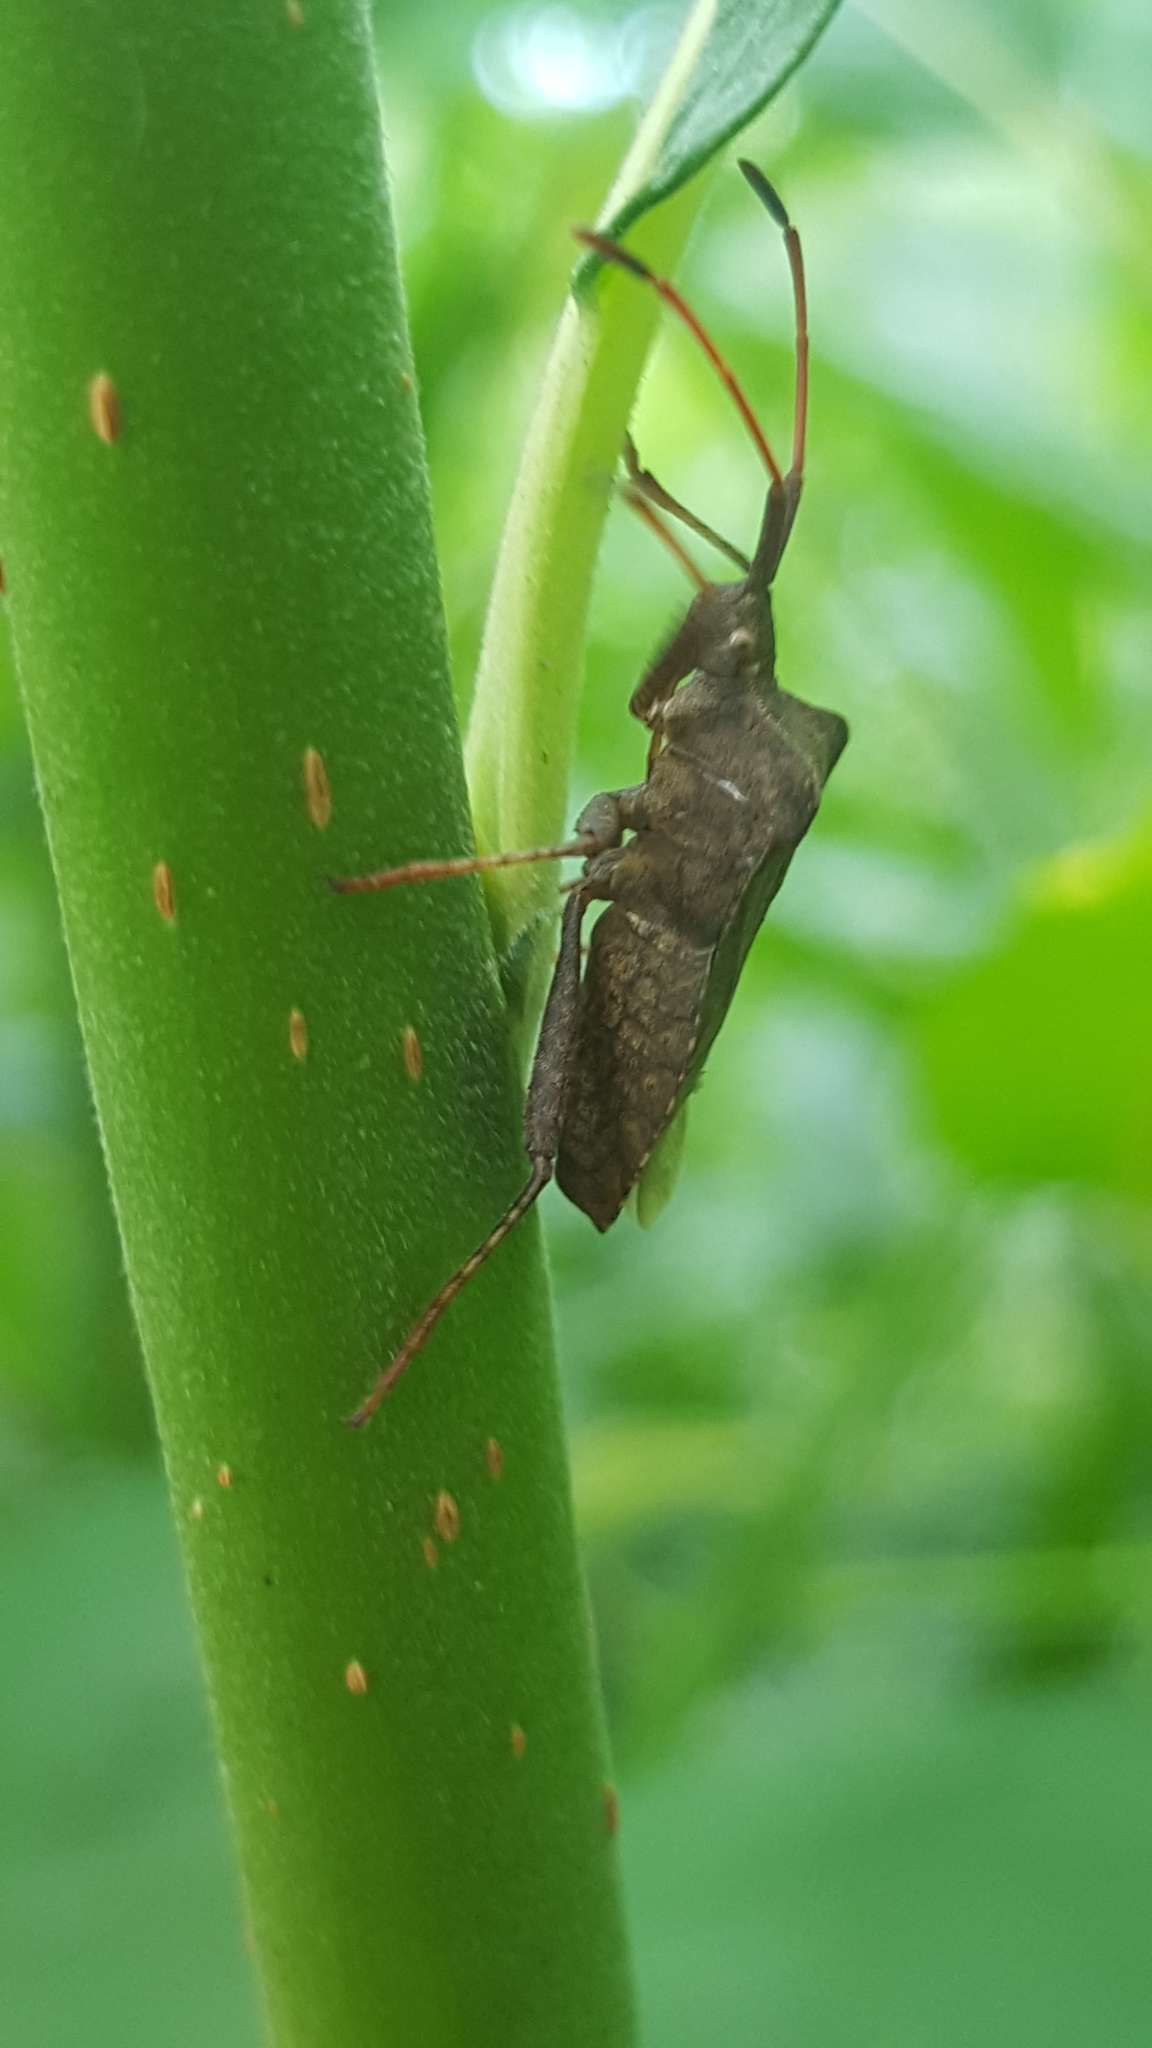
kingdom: Animalia
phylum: Arthropoda
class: Insecta
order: Hemiptera
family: Coreidae
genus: Coreus
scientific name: Coreus marginatus
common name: Dock bug
